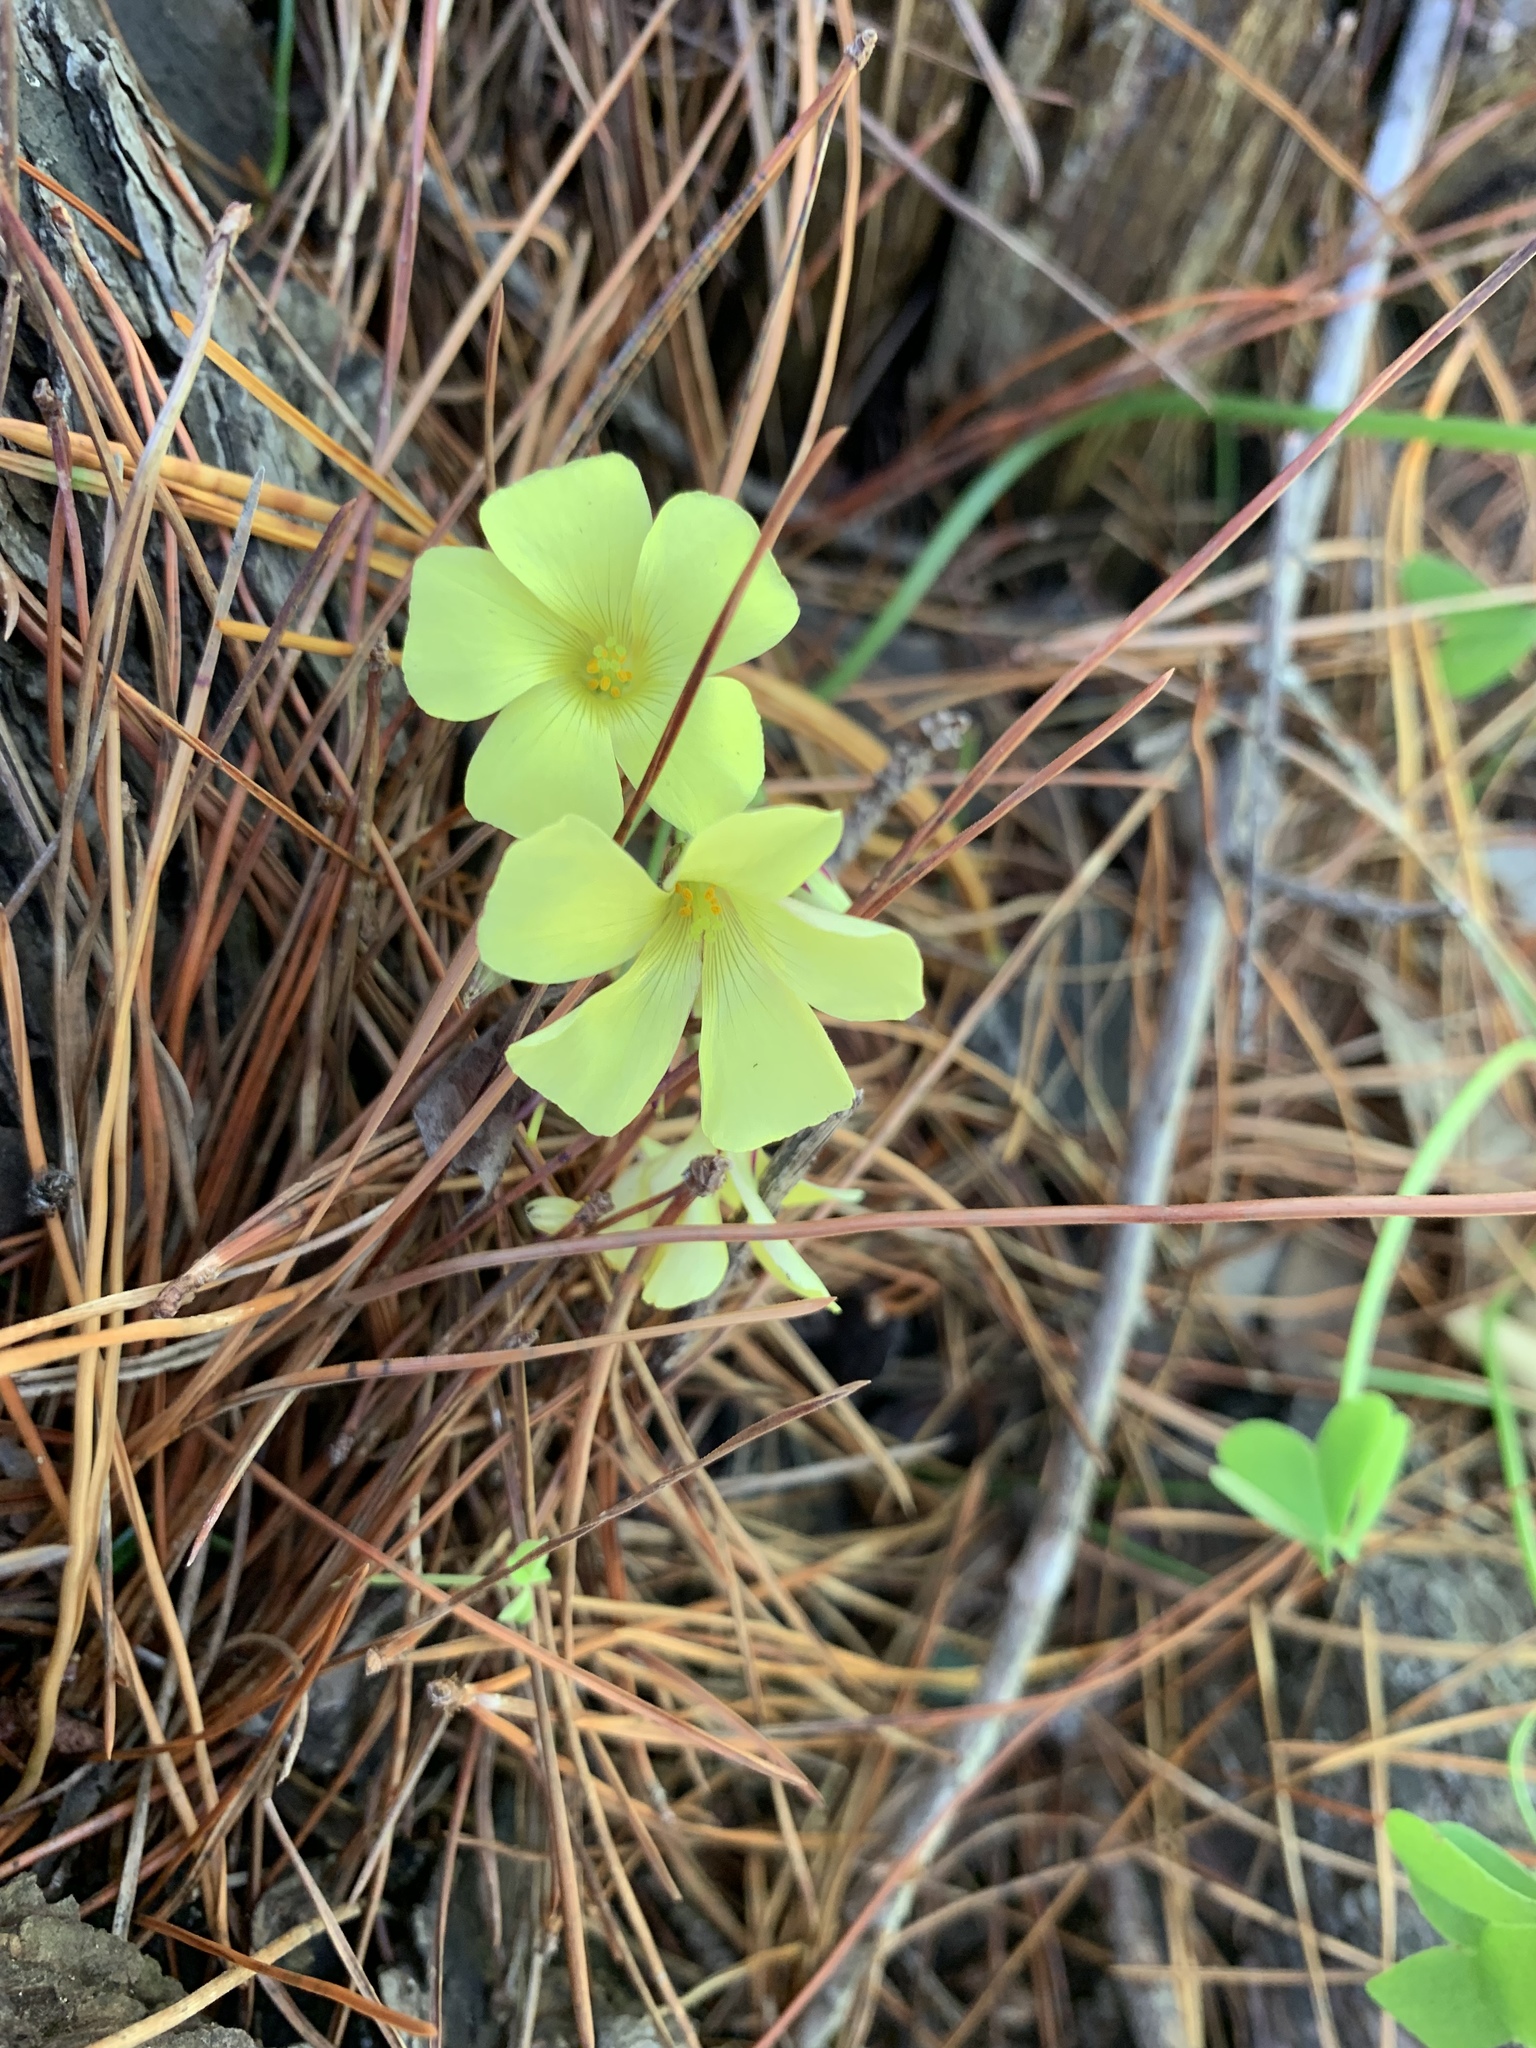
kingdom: Plantae
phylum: Tracheophyta
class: Magnoliopsida
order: Oxalidales
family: Oxalidaceae
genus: Oxalis
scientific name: Oxalis pes-caprae
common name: Bermuda-buttercup
